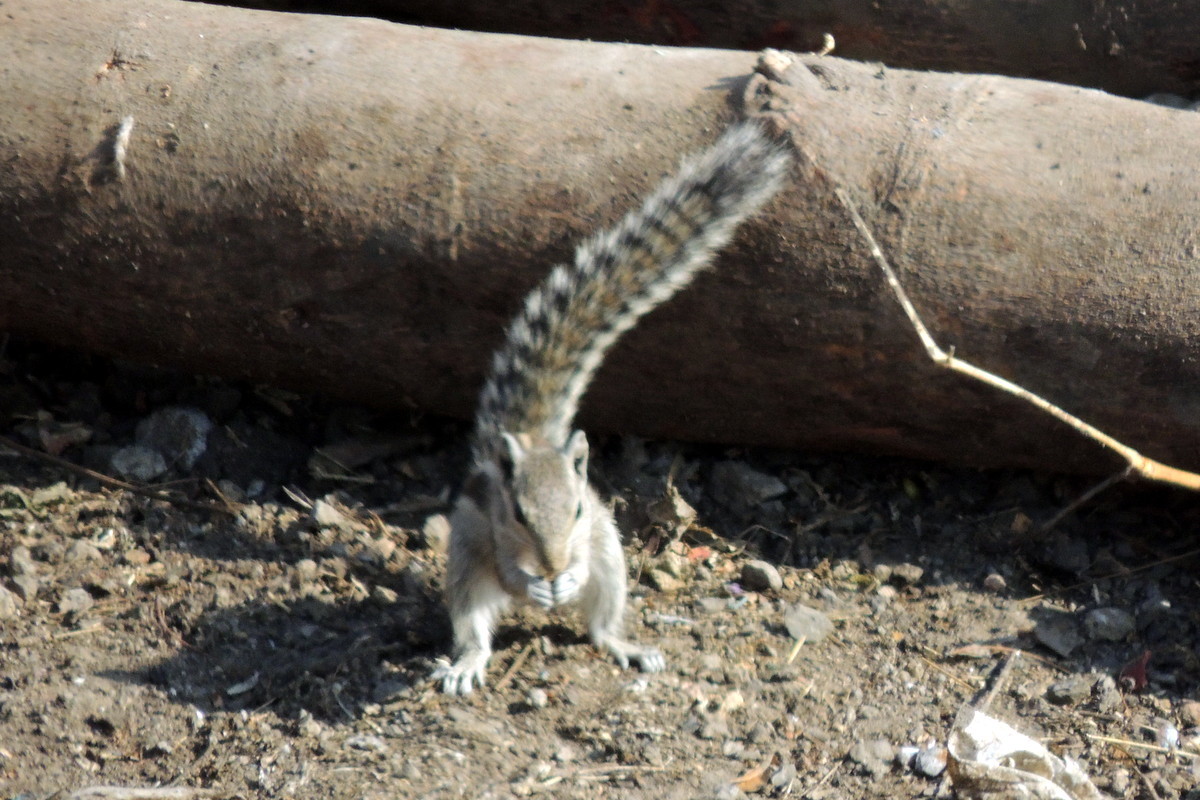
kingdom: Animalia
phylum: Chordata
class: Mammalia
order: Rodentia
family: Sciuridae
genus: Funambulus
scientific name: Funambulus pennantii
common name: Northern palm squirrel
